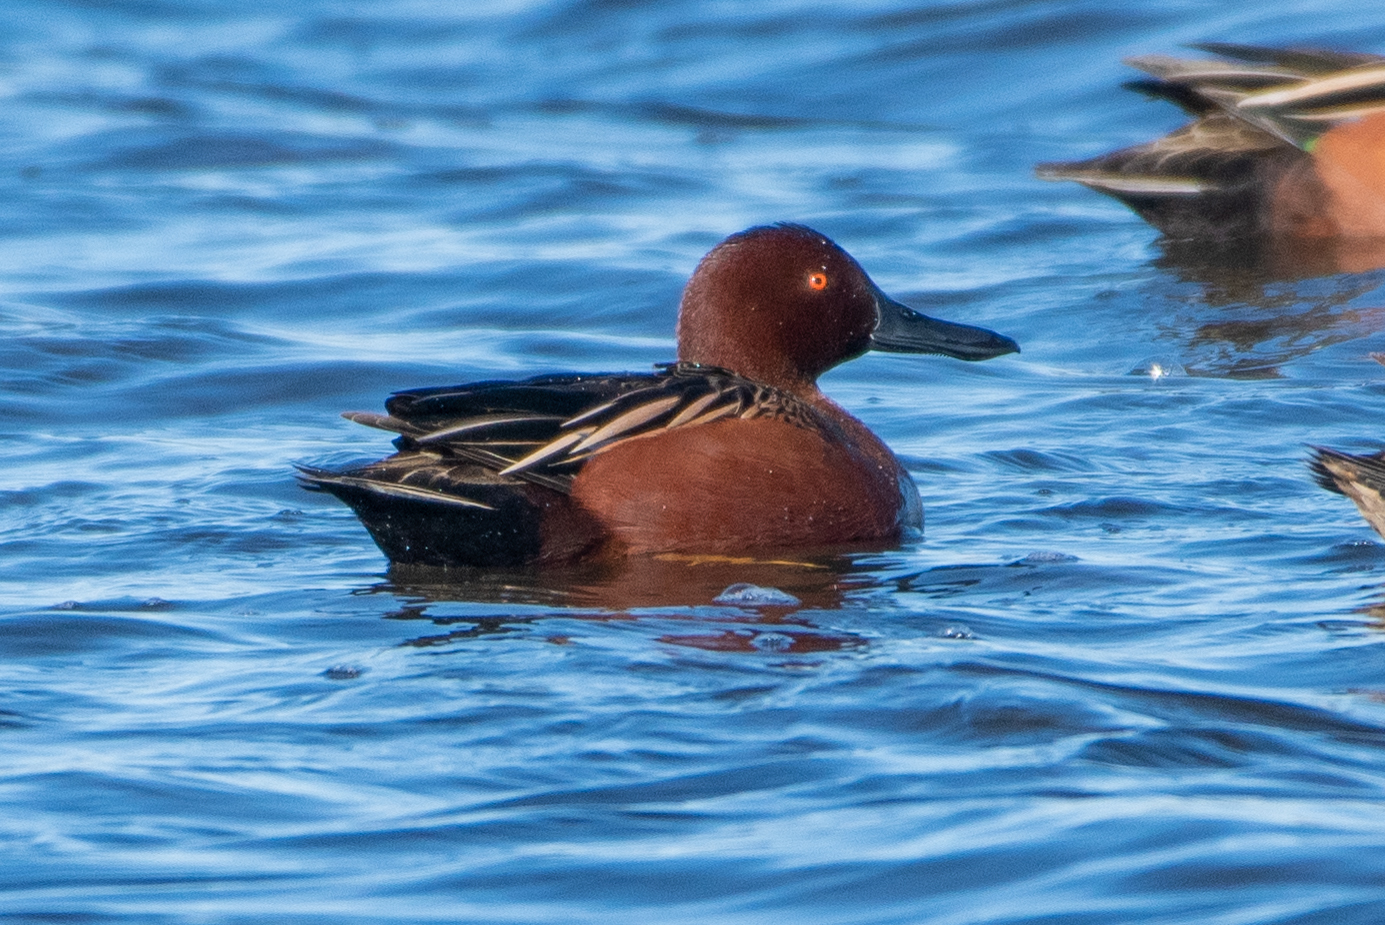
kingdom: Animalia
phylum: Chordata
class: Aves
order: Anseriformes
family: Anatidae
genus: Spatula
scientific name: Spatula cyanoptera
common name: Cinnamon teal
